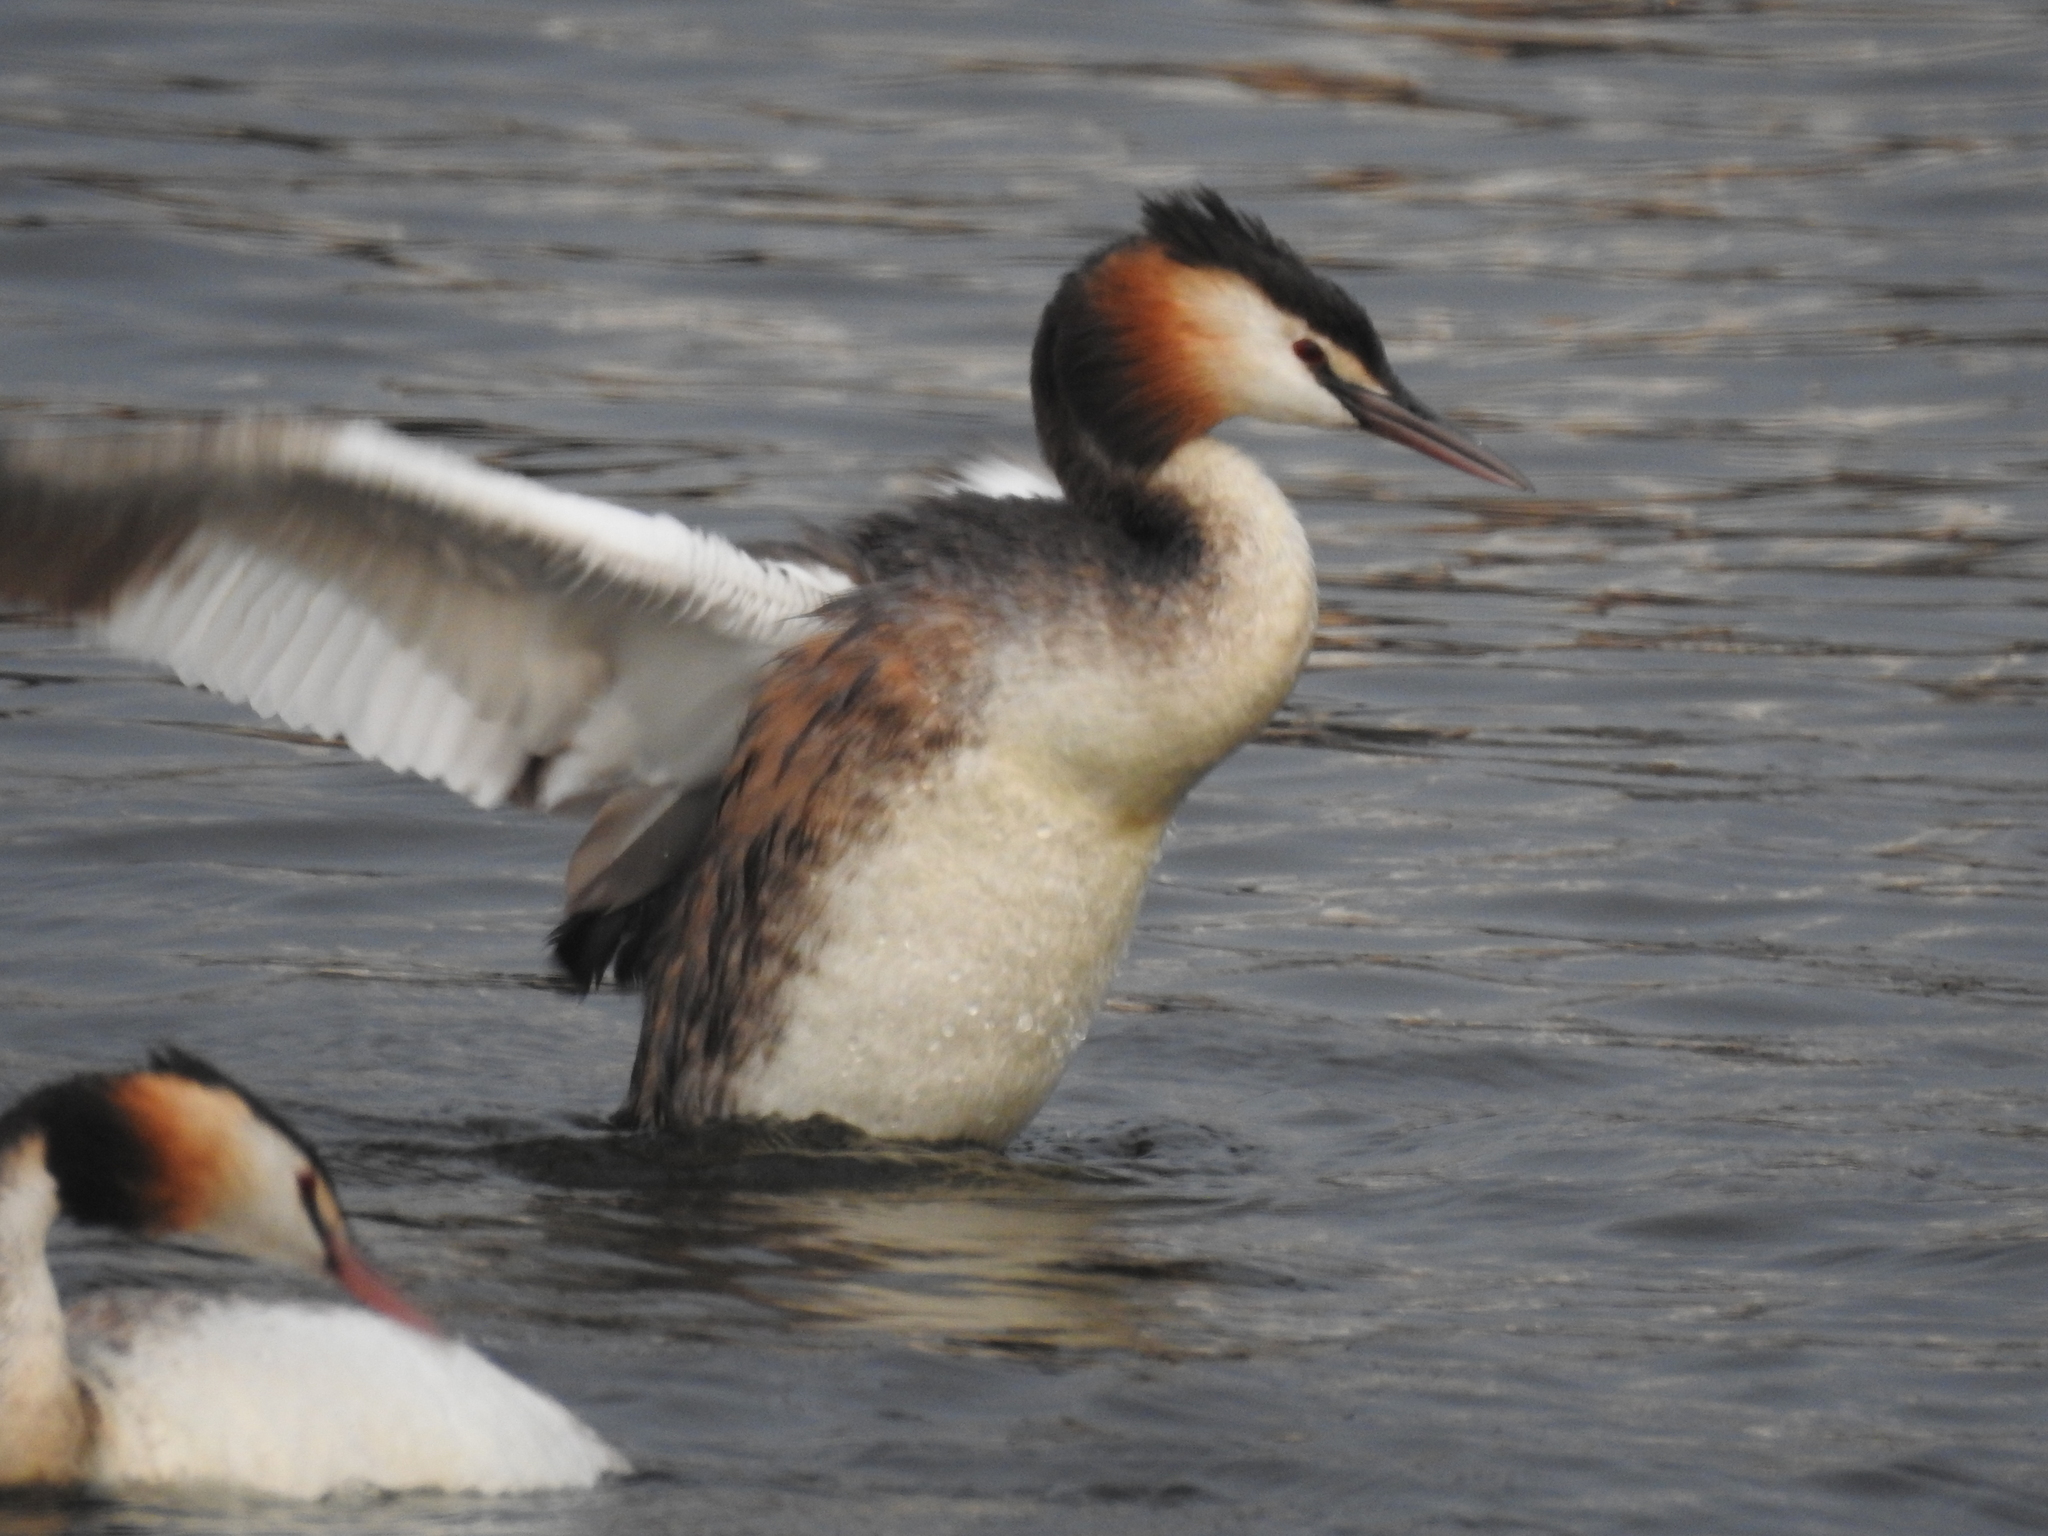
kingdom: Animalia
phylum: Chordata
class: Aves
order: Podicipediformes
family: Podicipedidae
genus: Podiceps
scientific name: Podiceps cristatus
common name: Great crested grebe
